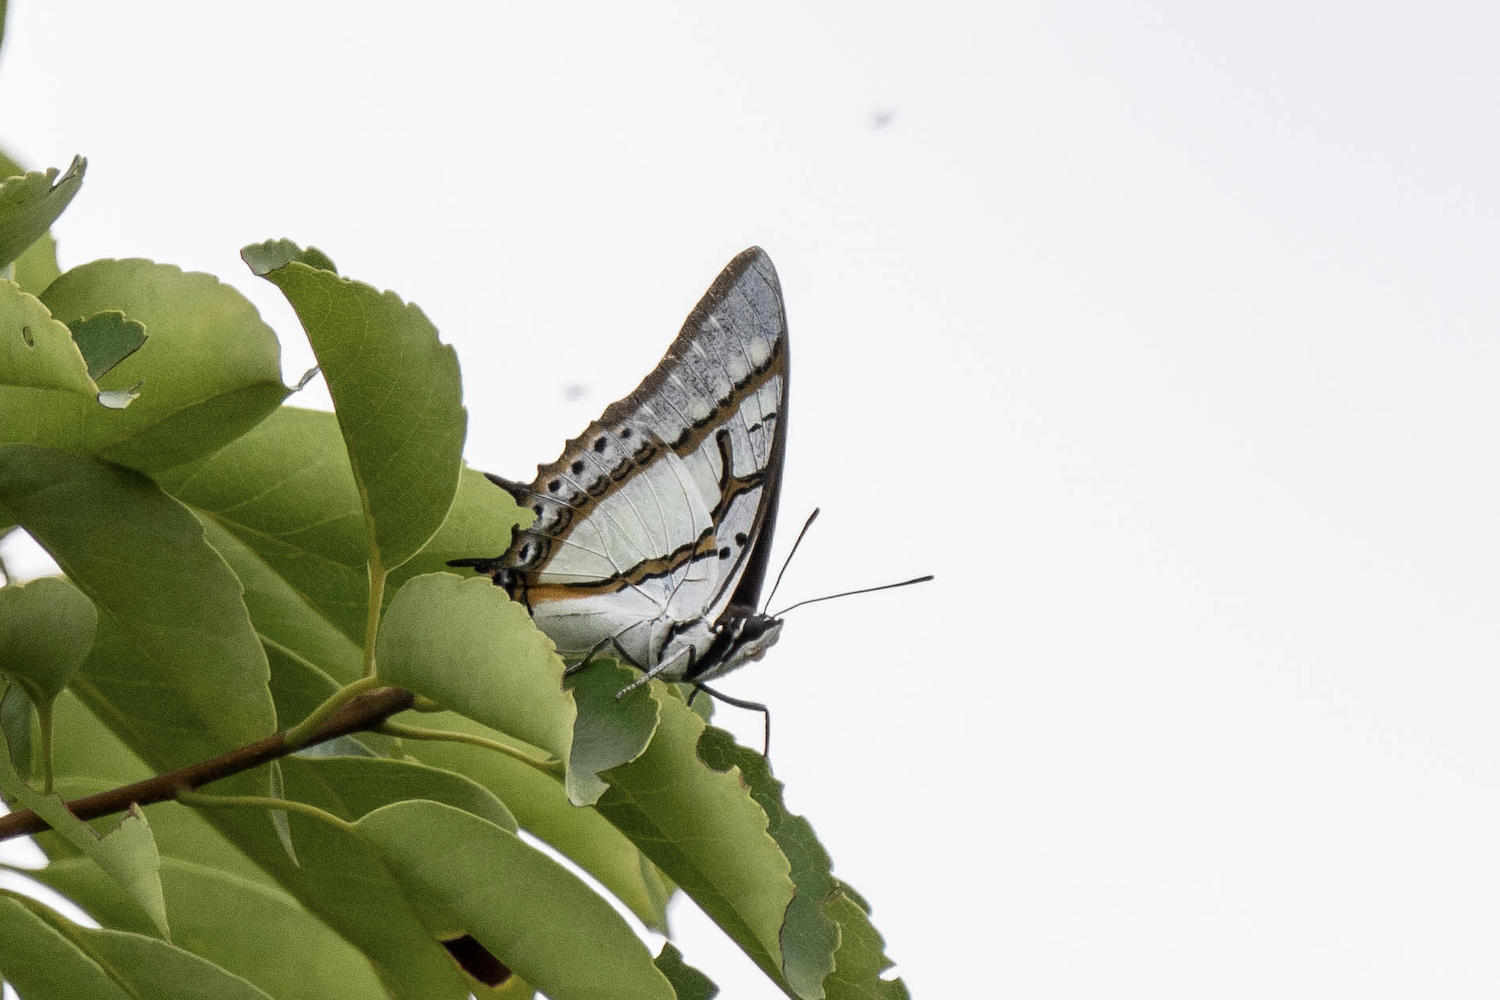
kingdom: Animalia
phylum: Arthropoda
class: Insecta
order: Lepidoptera
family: Nymphalidae
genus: Polyura
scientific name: Polyura eudamippus
